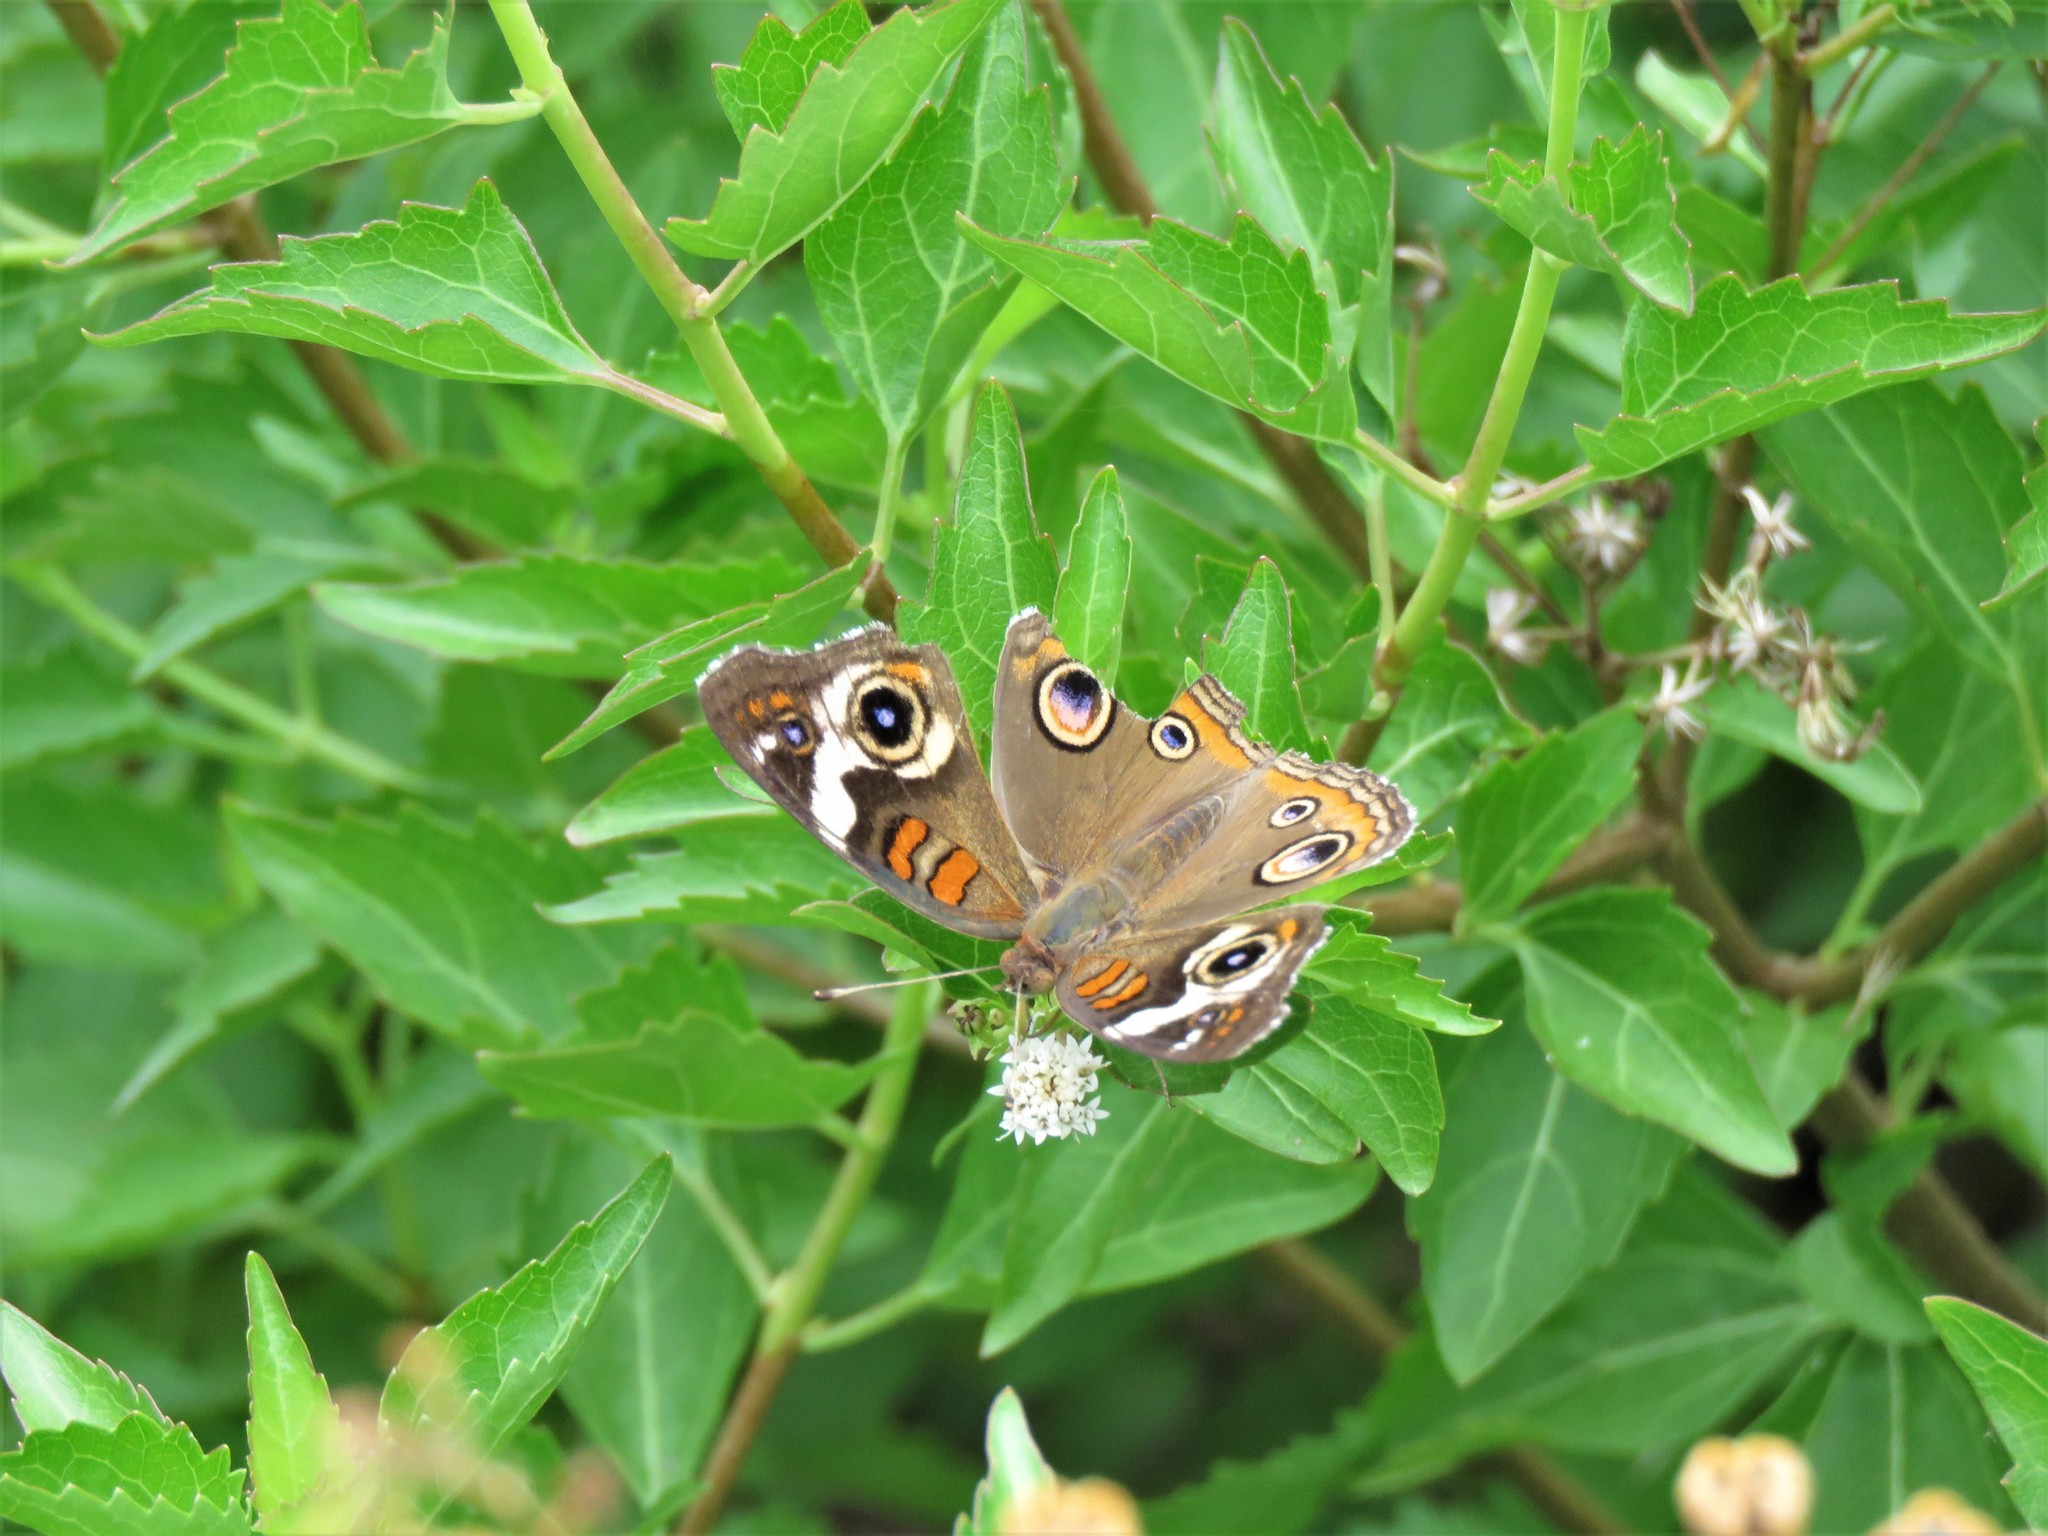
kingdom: Animalia
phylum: Arthropoda
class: Insecta
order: Lepidoptera
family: Nymphalidae
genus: Junonia
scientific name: Junonia coenia
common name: Common buckeye
